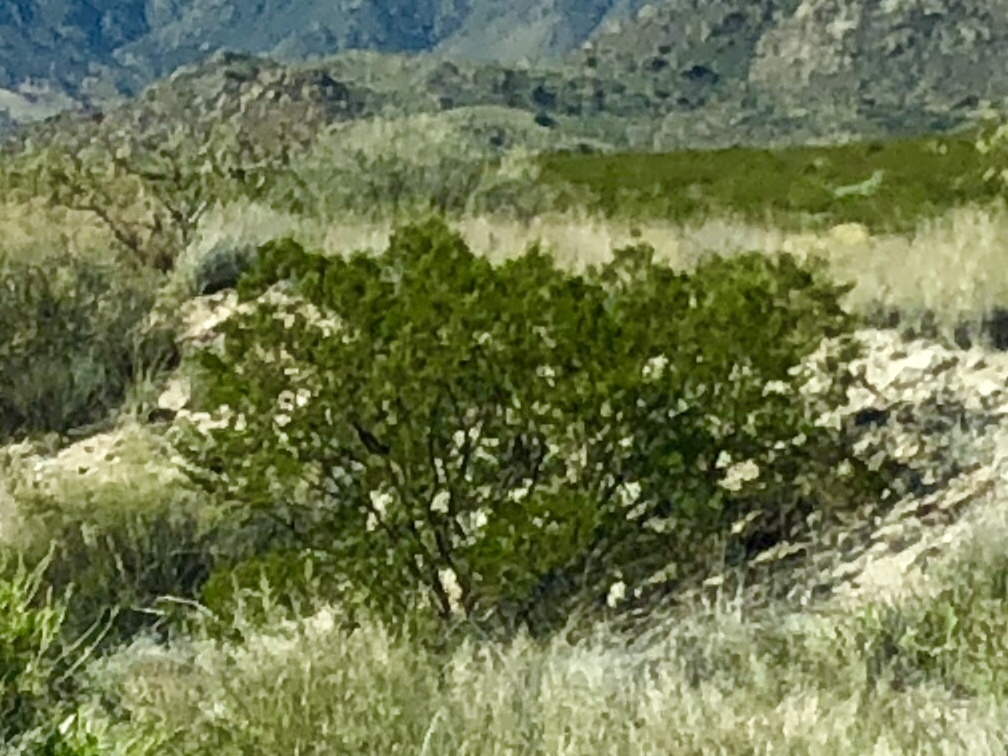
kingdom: Plantae
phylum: Tracheophyta
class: Magnoliopsida
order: Zygophyllales
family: Zygophyllaceae
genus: Larrea
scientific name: Larrea tridentata
